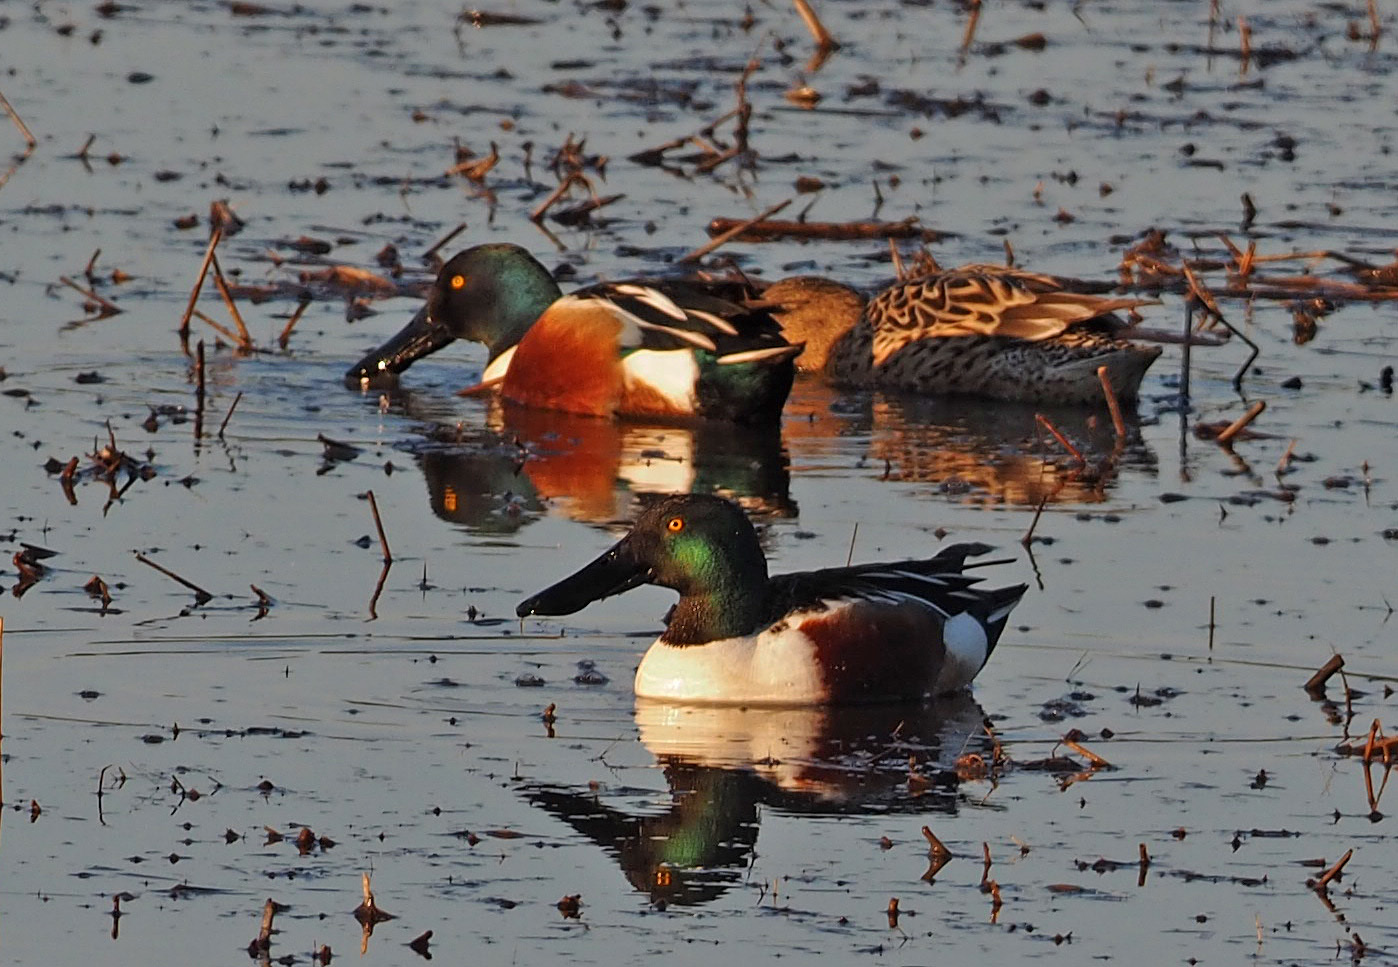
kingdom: Animalia
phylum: Chordata
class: Aves
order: Anseriformes
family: Anatidae
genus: Spatula
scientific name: Spatula clypeata
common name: Northern shoveler
